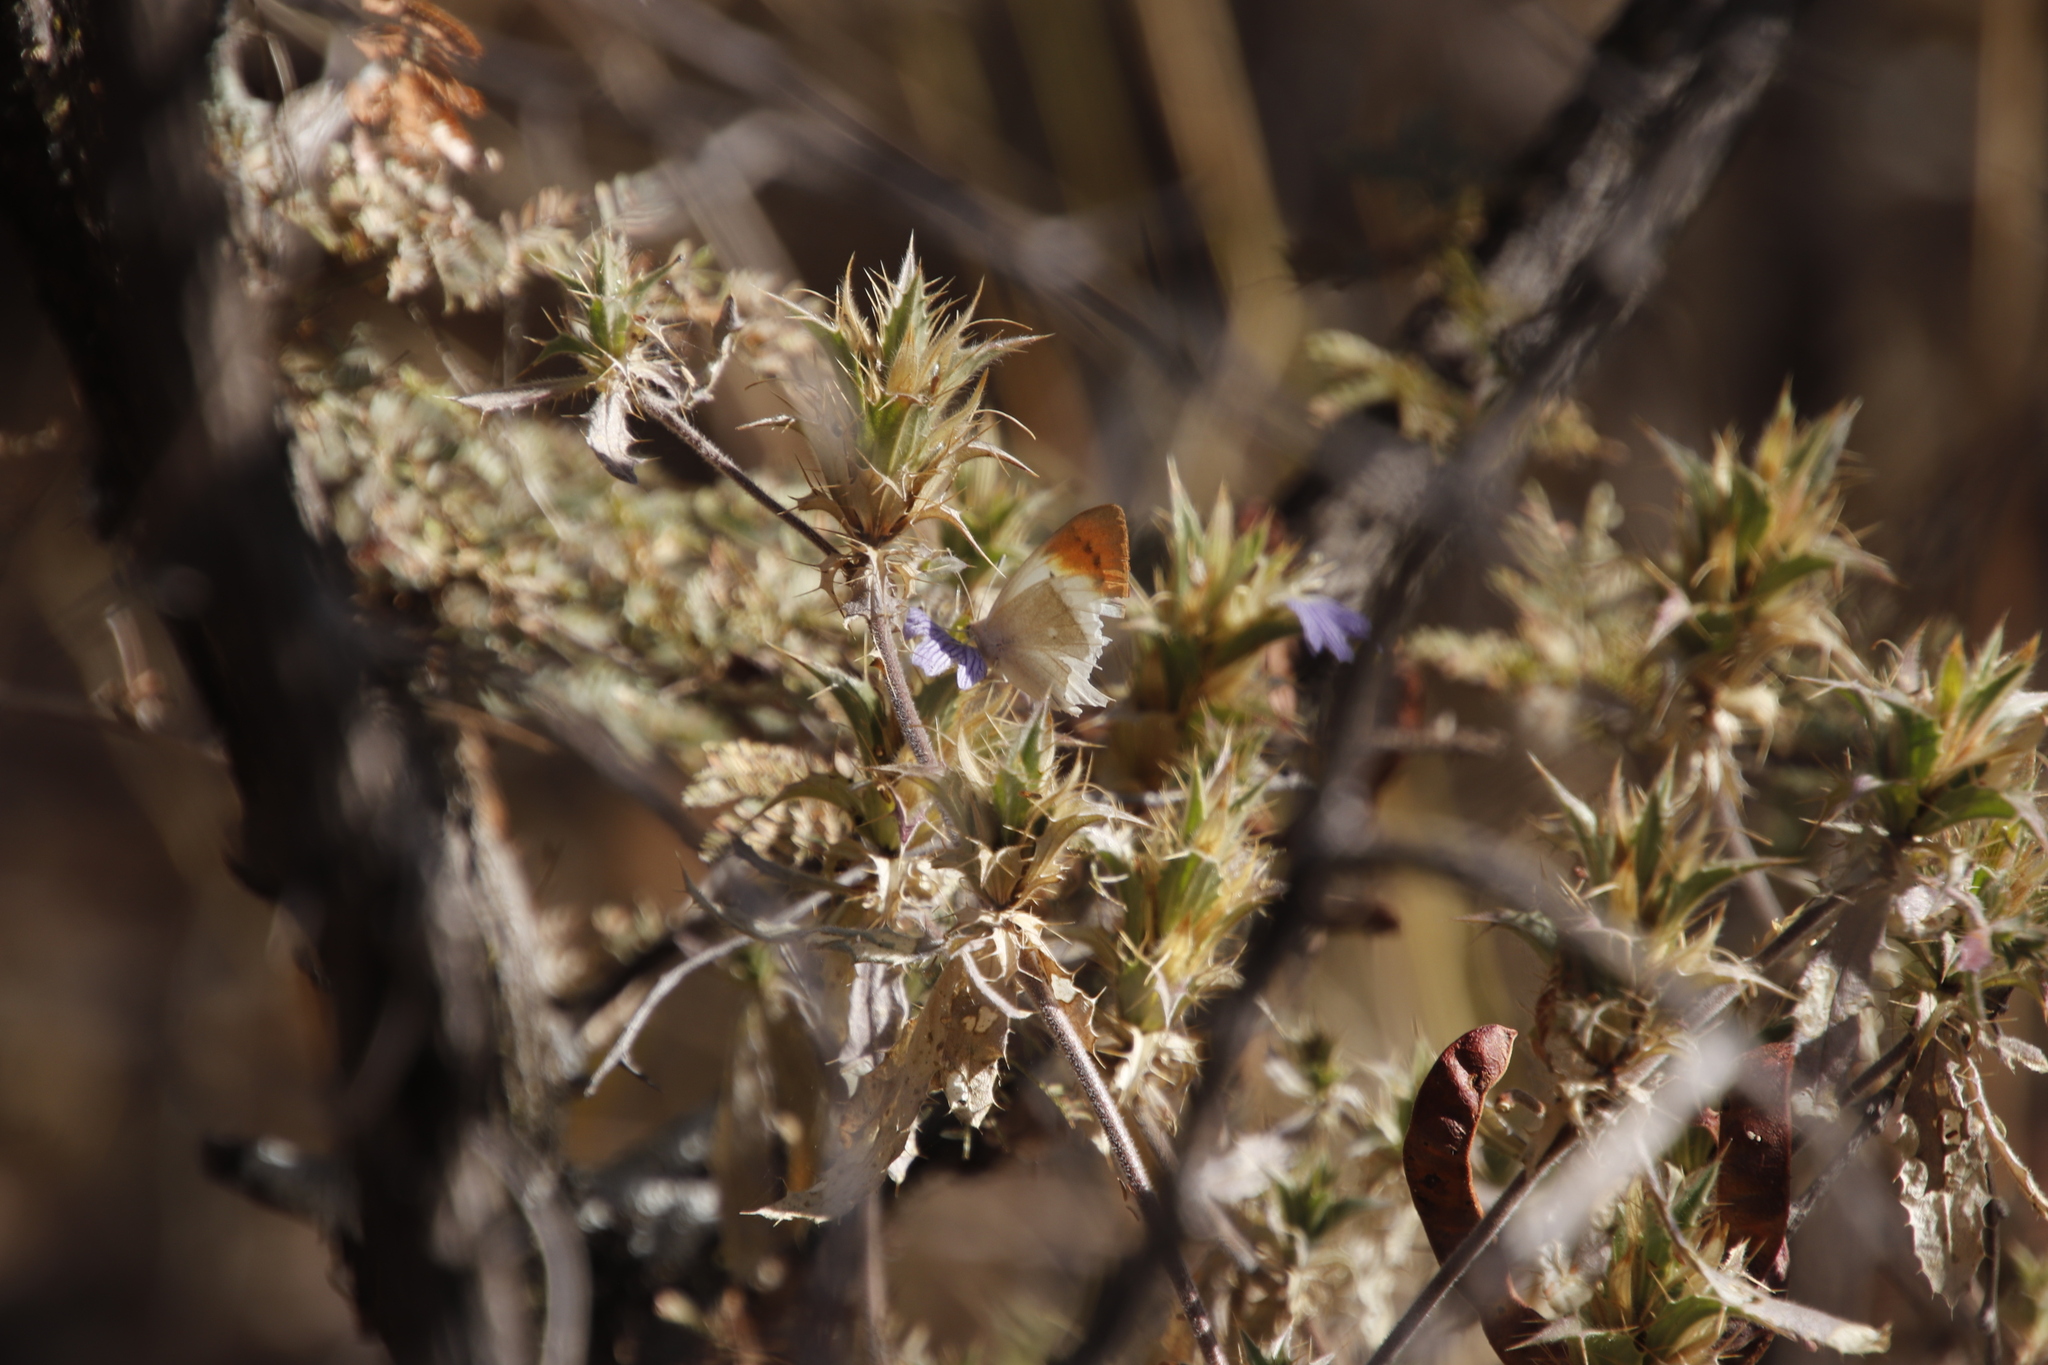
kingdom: Animalia
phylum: Arthropoda
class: Insecta
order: Lepidoptera
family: Pieridae
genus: Colotis
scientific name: Colotis ione
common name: Bushveld purple tip
